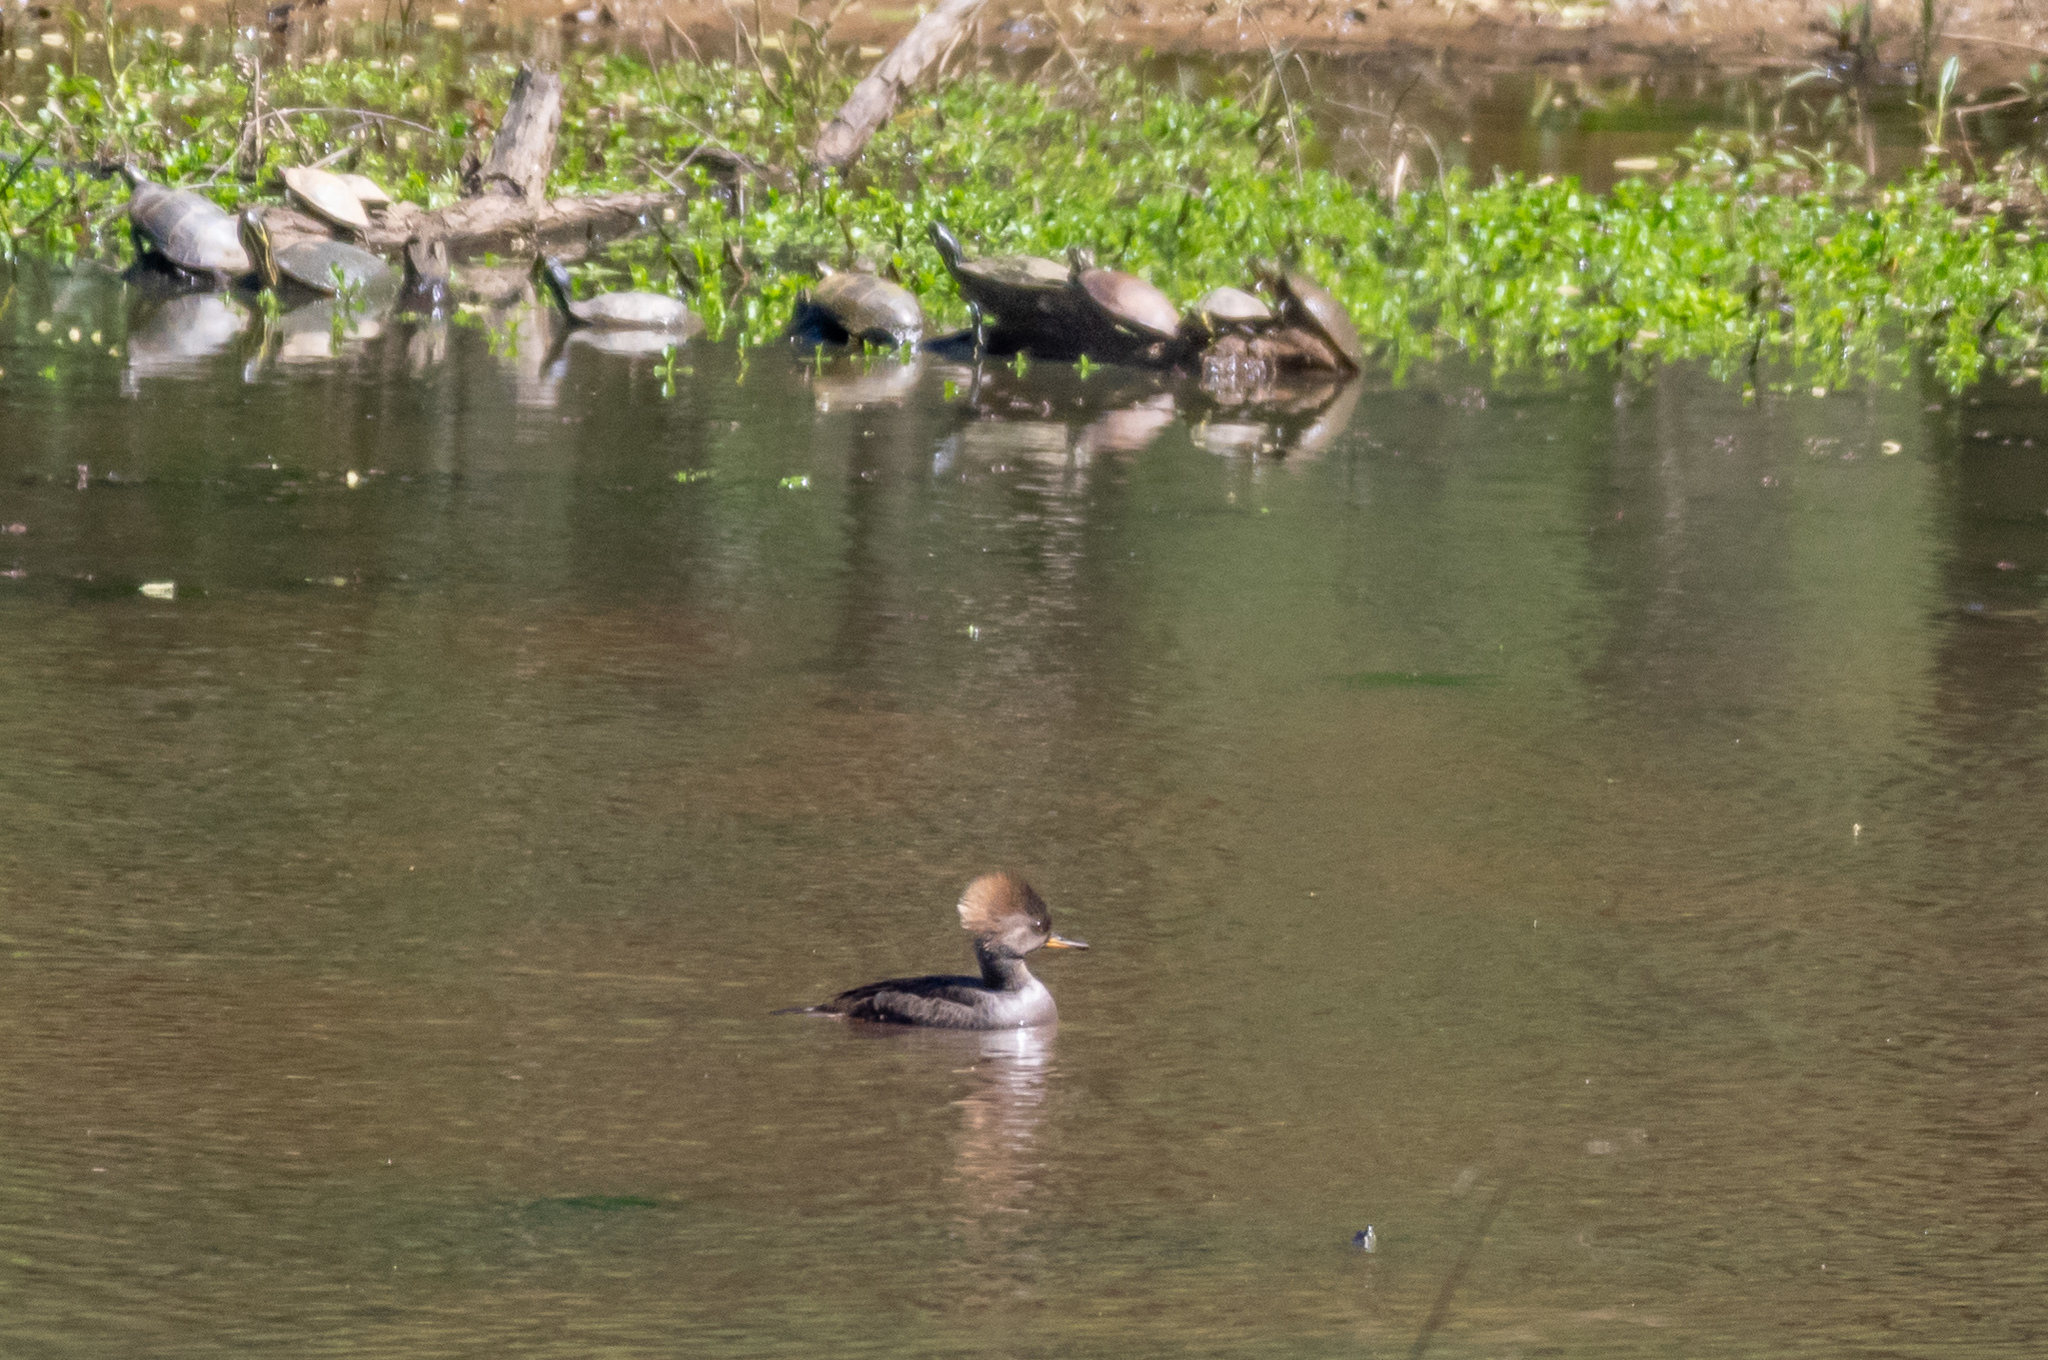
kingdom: Animalia
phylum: Chordata
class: Aves
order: Anseriformes
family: Anatidae
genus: Lophodytes
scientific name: Lophodytes cucullatus
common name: Hooded merganser
